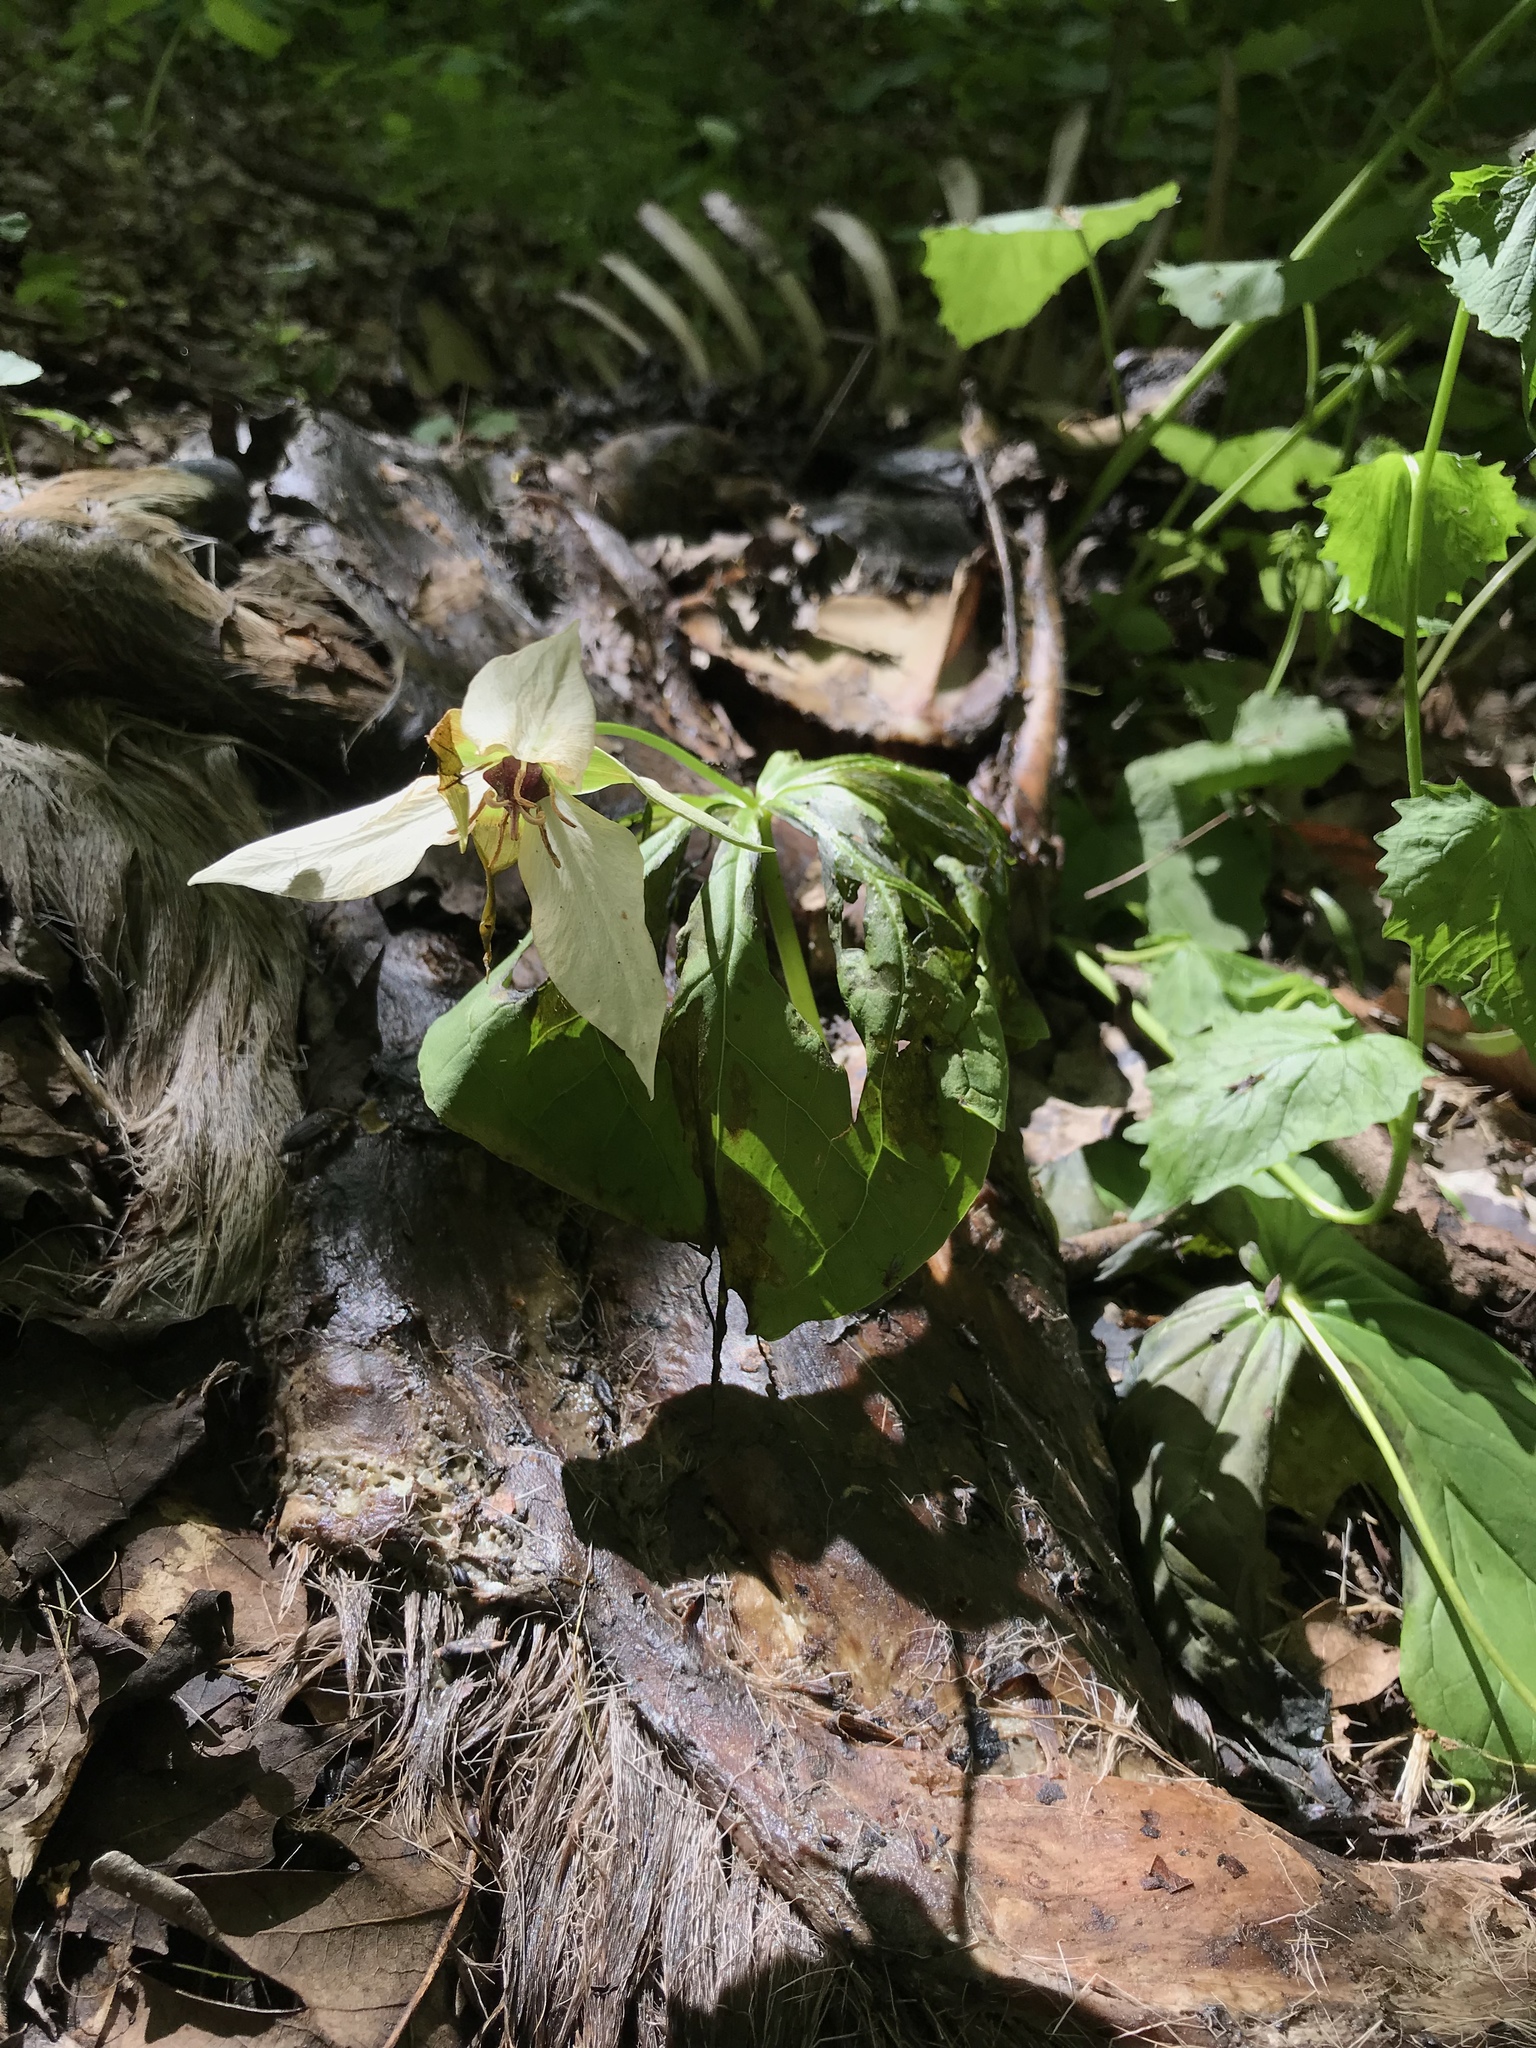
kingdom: Plantae
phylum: Tracheophyta
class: Liliopsida
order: Liliales
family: Melanthiaceae
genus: Trillium
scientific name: Trillium erectum
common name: Purple trillium
